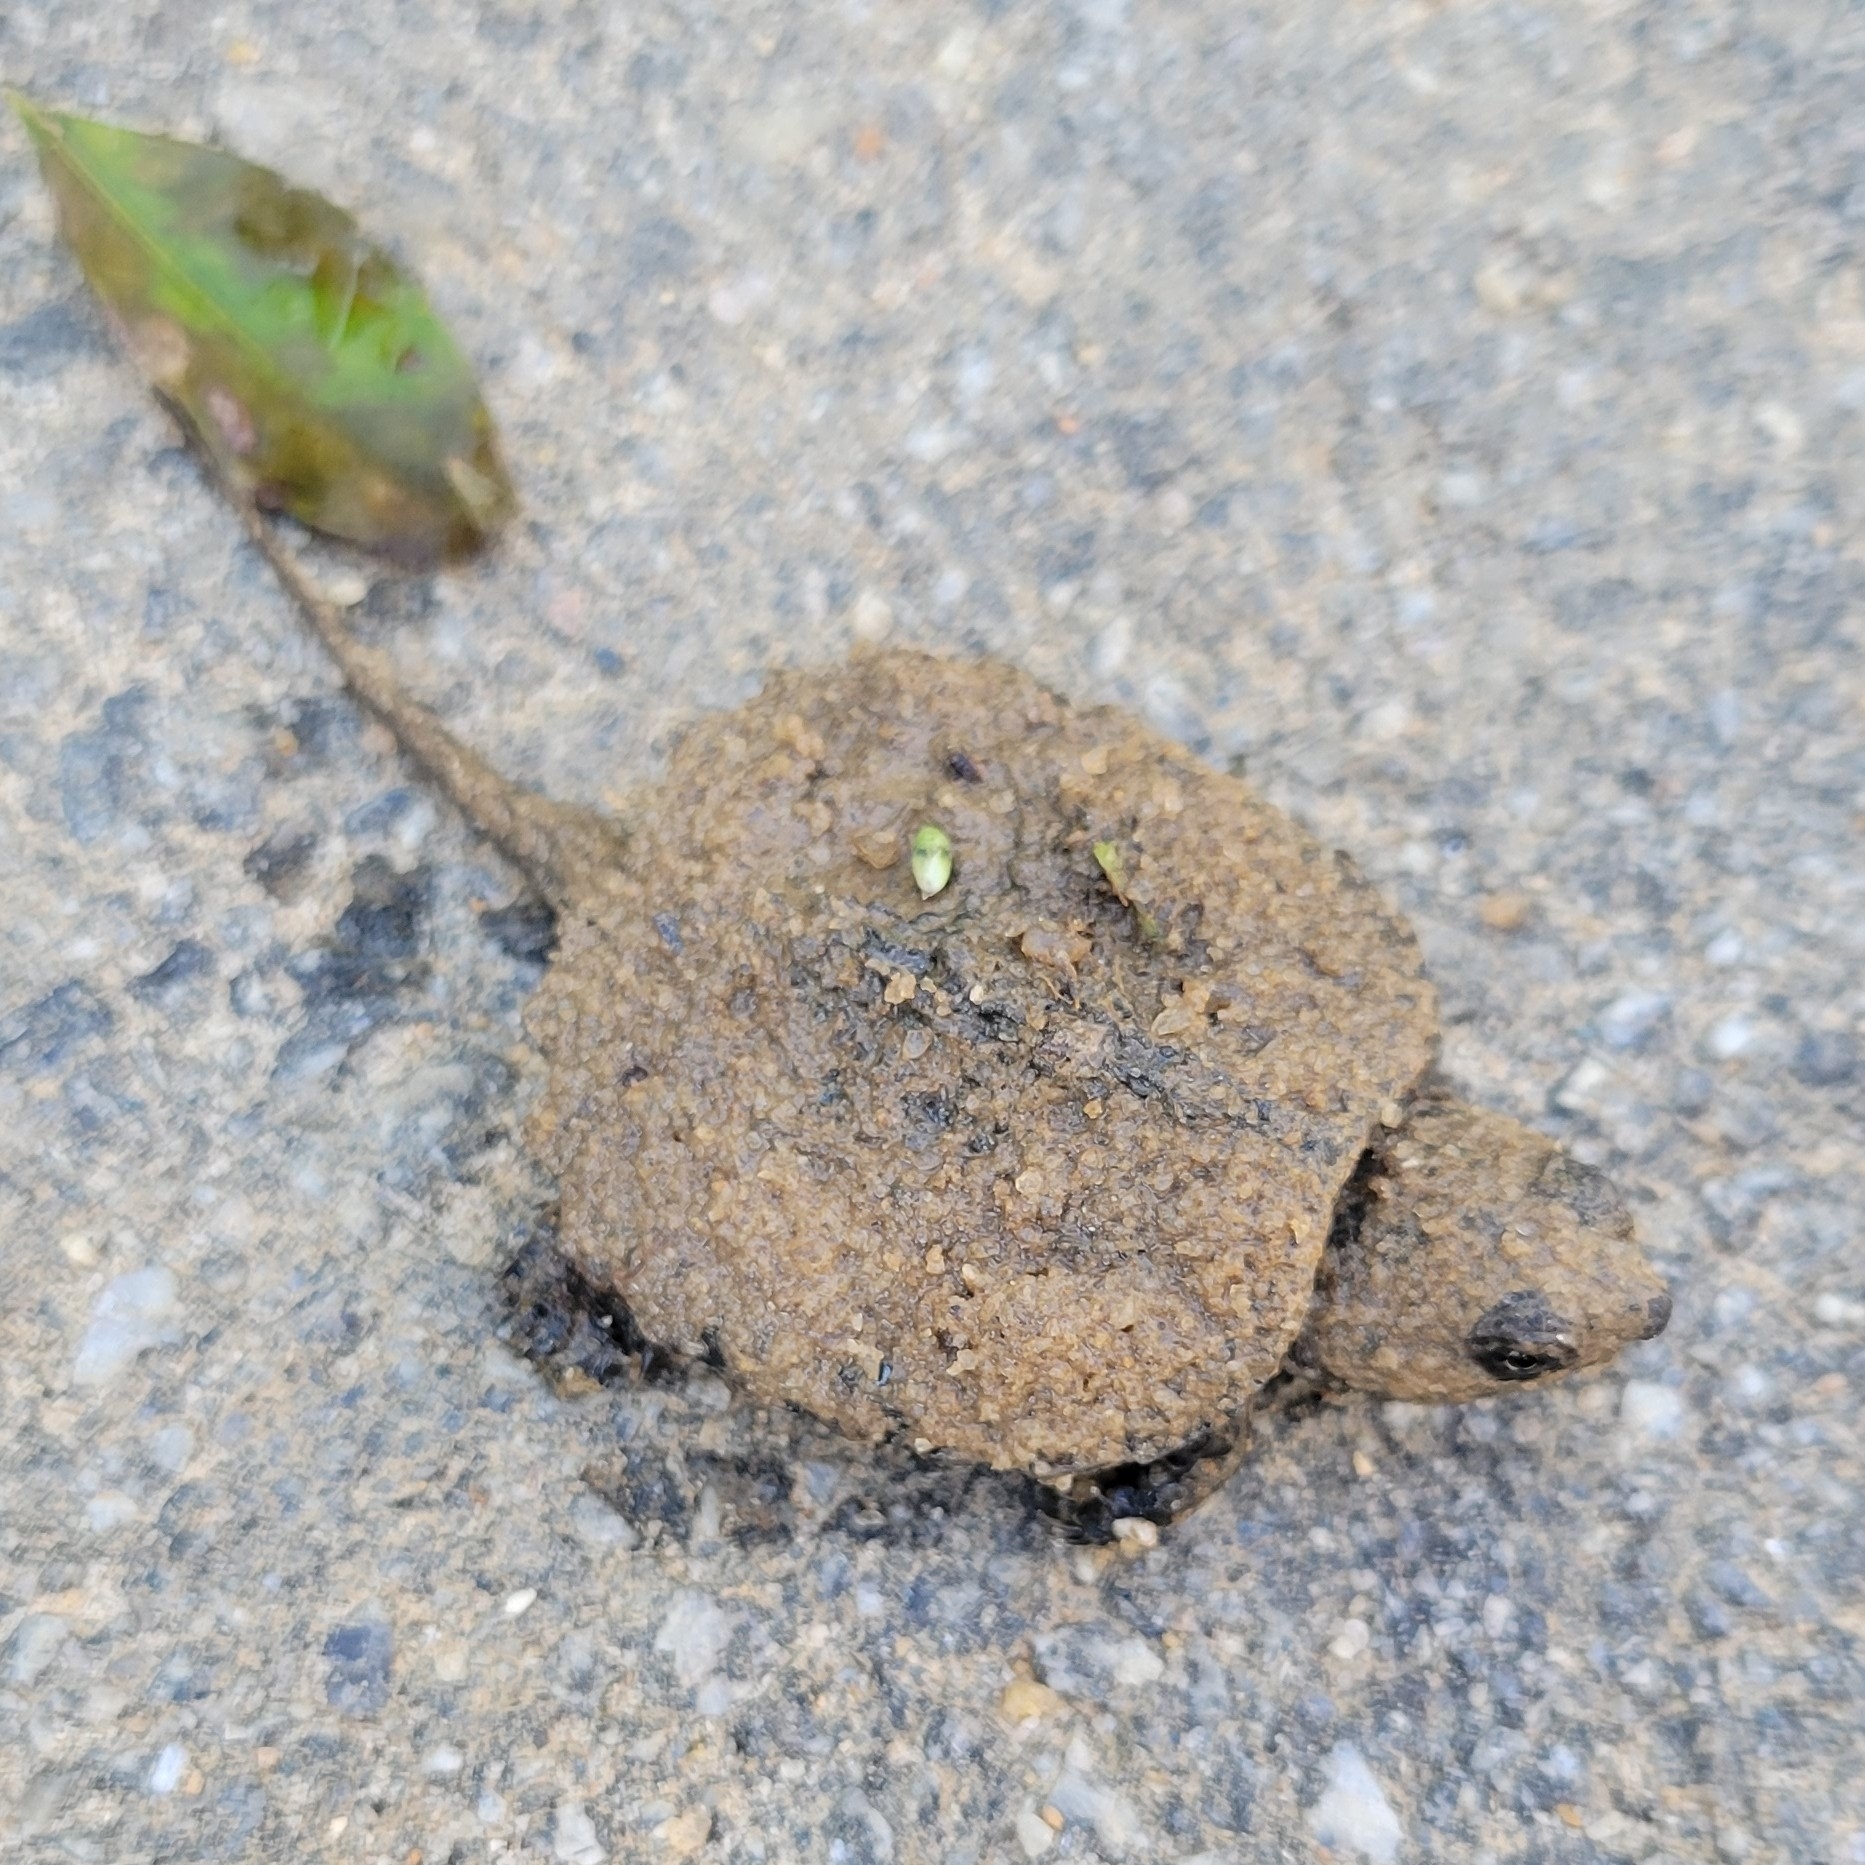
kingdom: Animalia
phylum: Chordata
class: Testudines
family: Chelydridae
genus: Chelydra
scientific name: Chelydra serpentina
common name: Common snapping turtle
